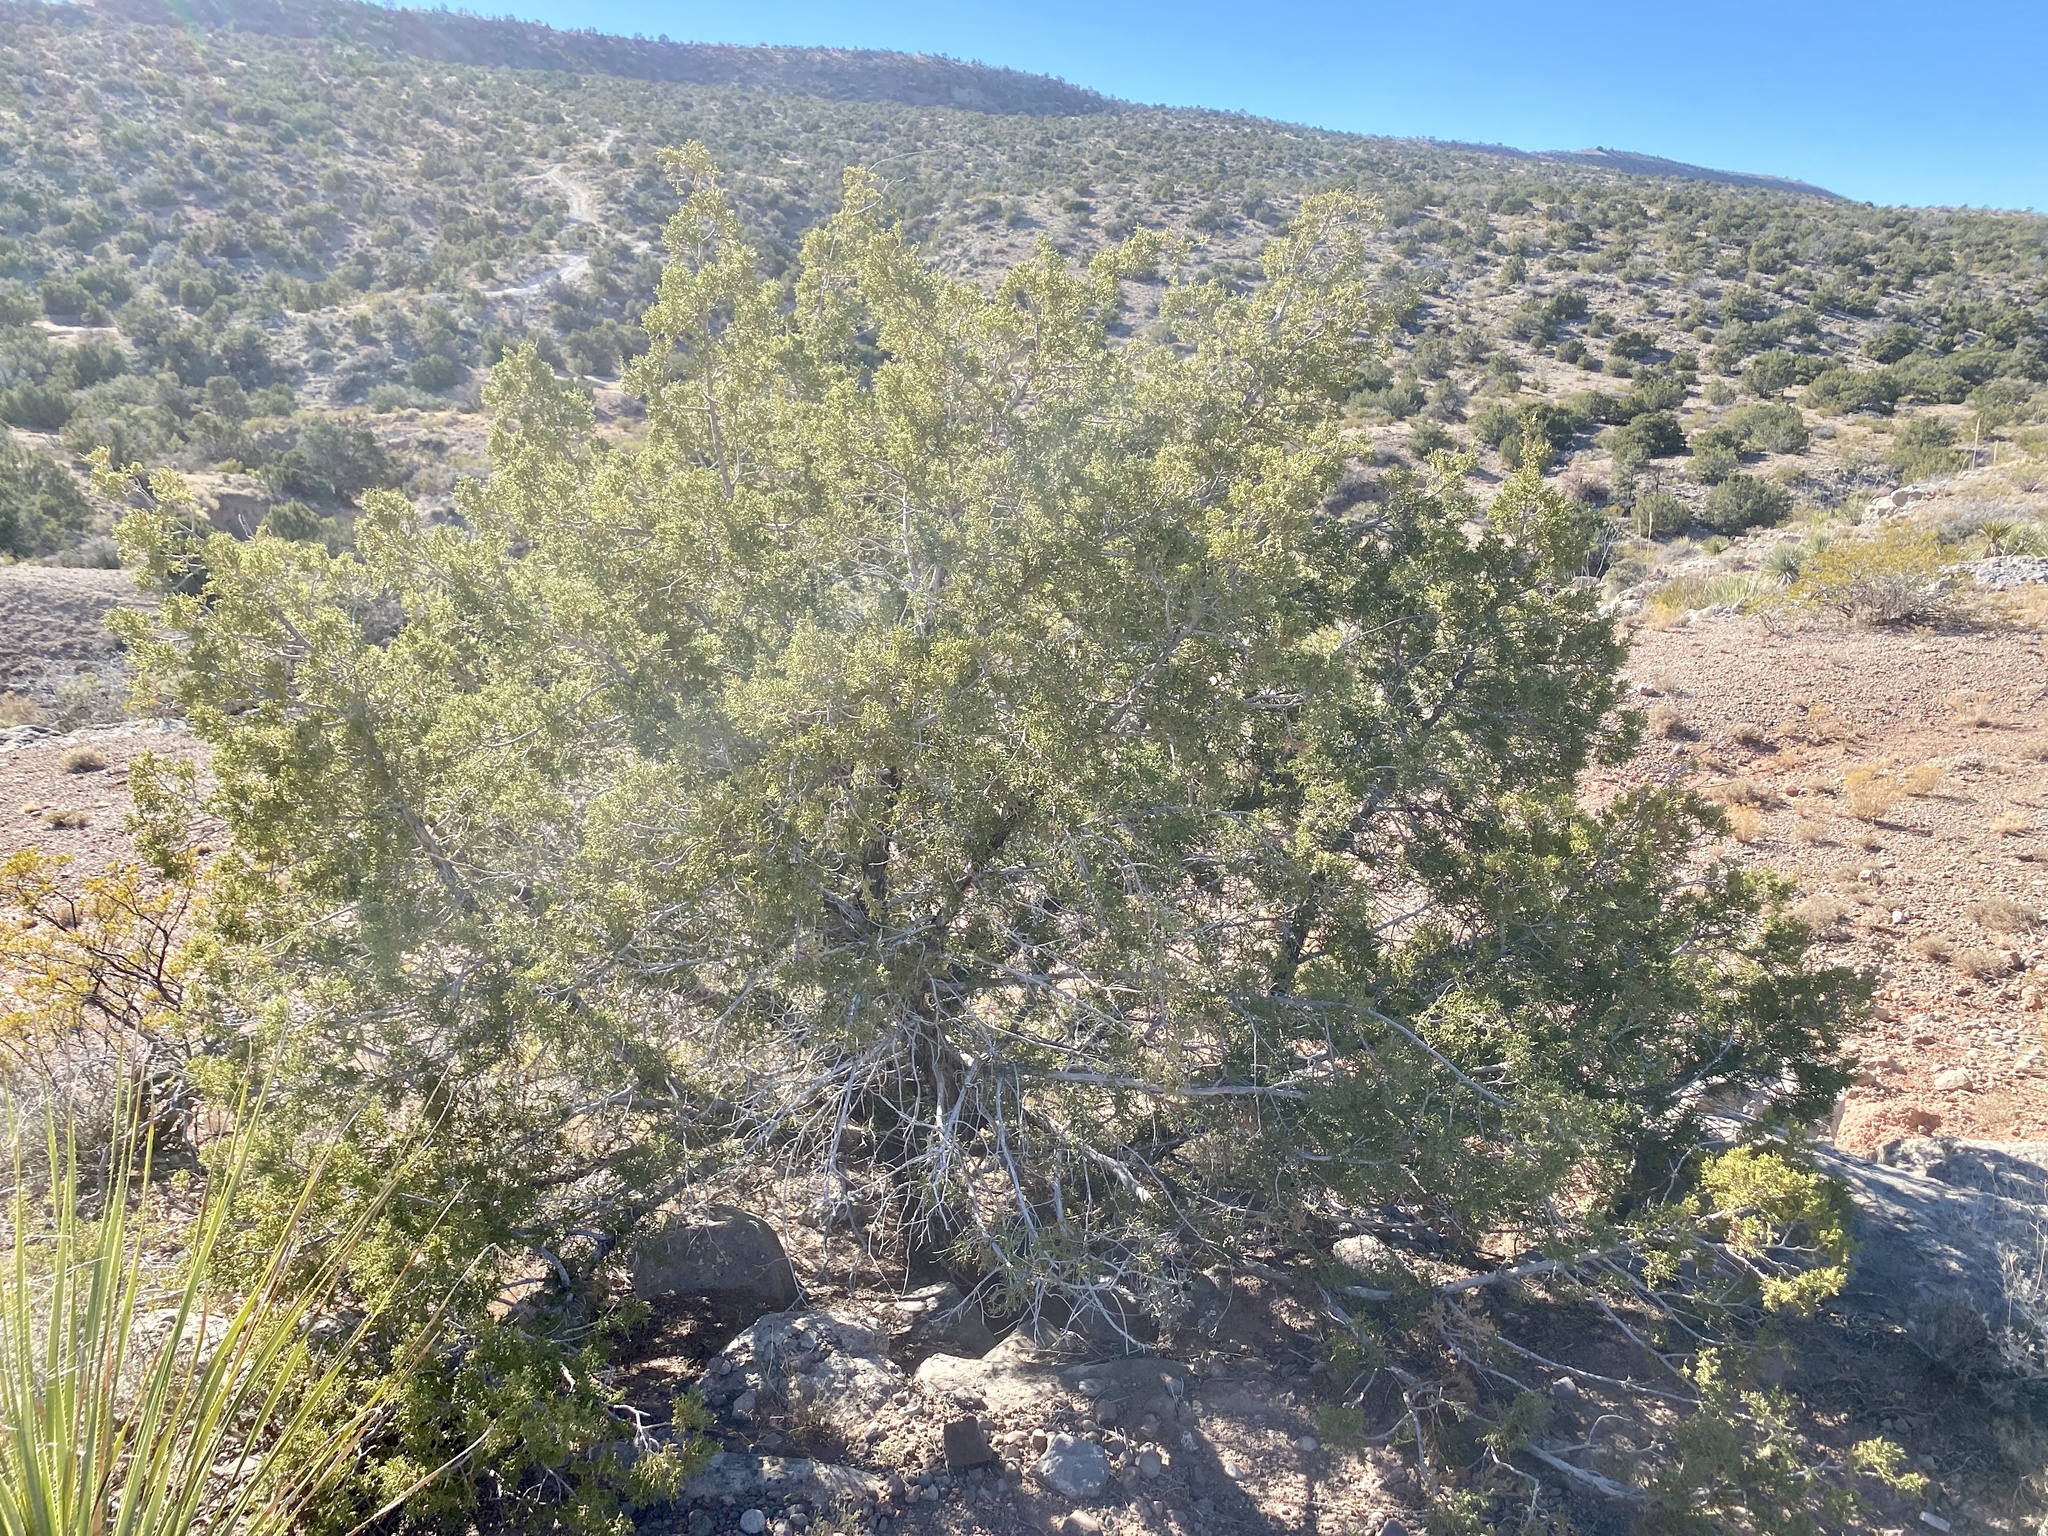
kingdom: Plantae
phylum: Tracheophyta
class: Pinopsida
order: Pinales
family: Cupressaceae
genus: Juniperus
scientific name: Juniperus monosperma
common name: One-seed juniper
